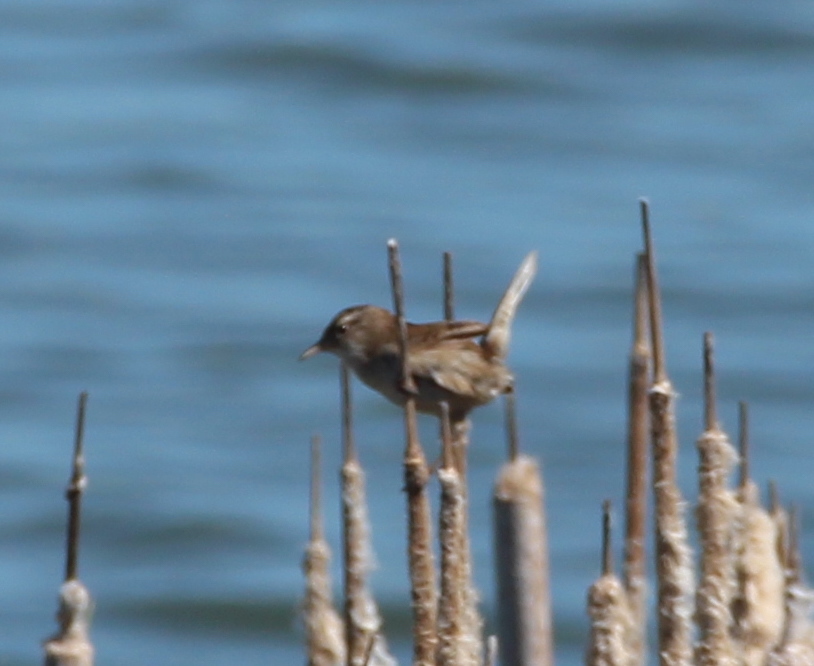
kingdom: Animalia
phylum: Chordata
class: Aves
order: Passeriformes
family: Troglodytidae
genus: Cistothorus
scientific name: Cistothorus palustris
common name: Marsh wren
